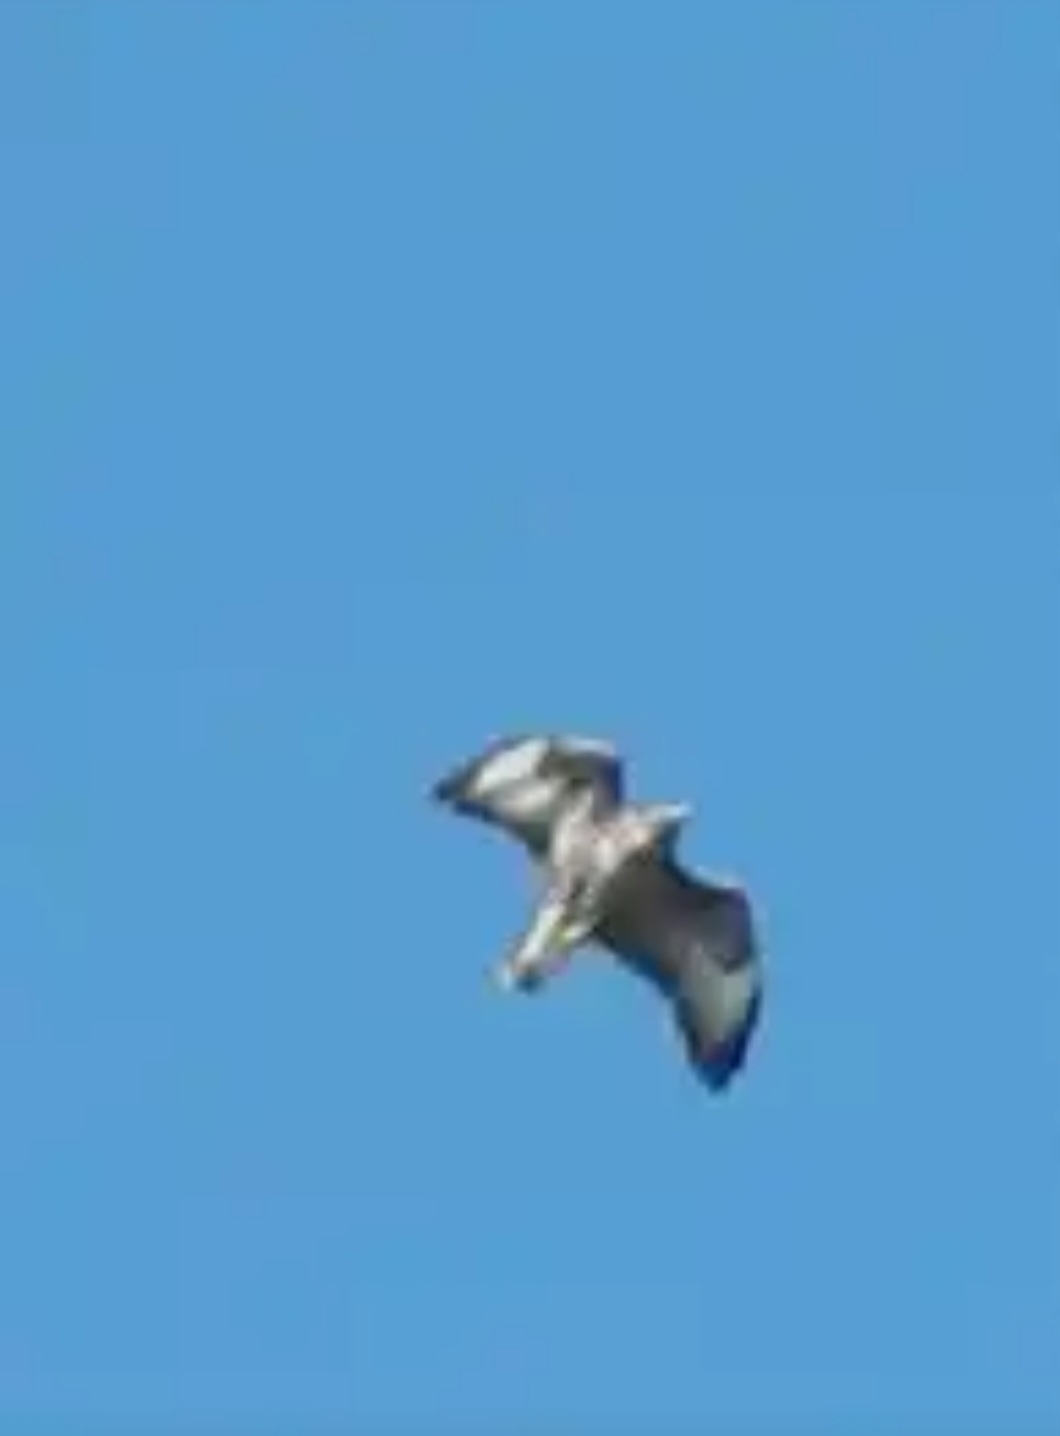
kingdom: Animalia
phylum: Chordata
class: Aves
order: Accipitriformes
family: Accipitridae
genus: Buteo
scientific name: Buteo buteo
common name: Common buzzard
